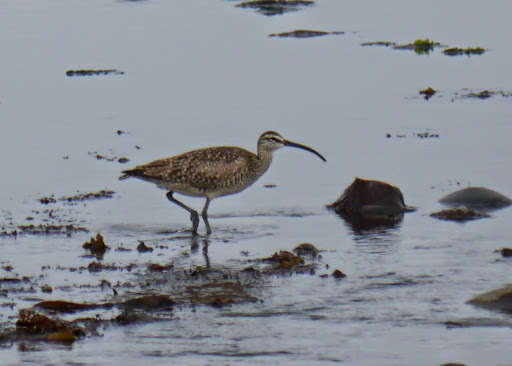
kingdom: Animalia
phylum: Chordata
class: Aves
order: Charadriiformes
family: Scolopacidae
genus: Numenius
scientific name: Numenius phaeopus
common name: Whimbrel
